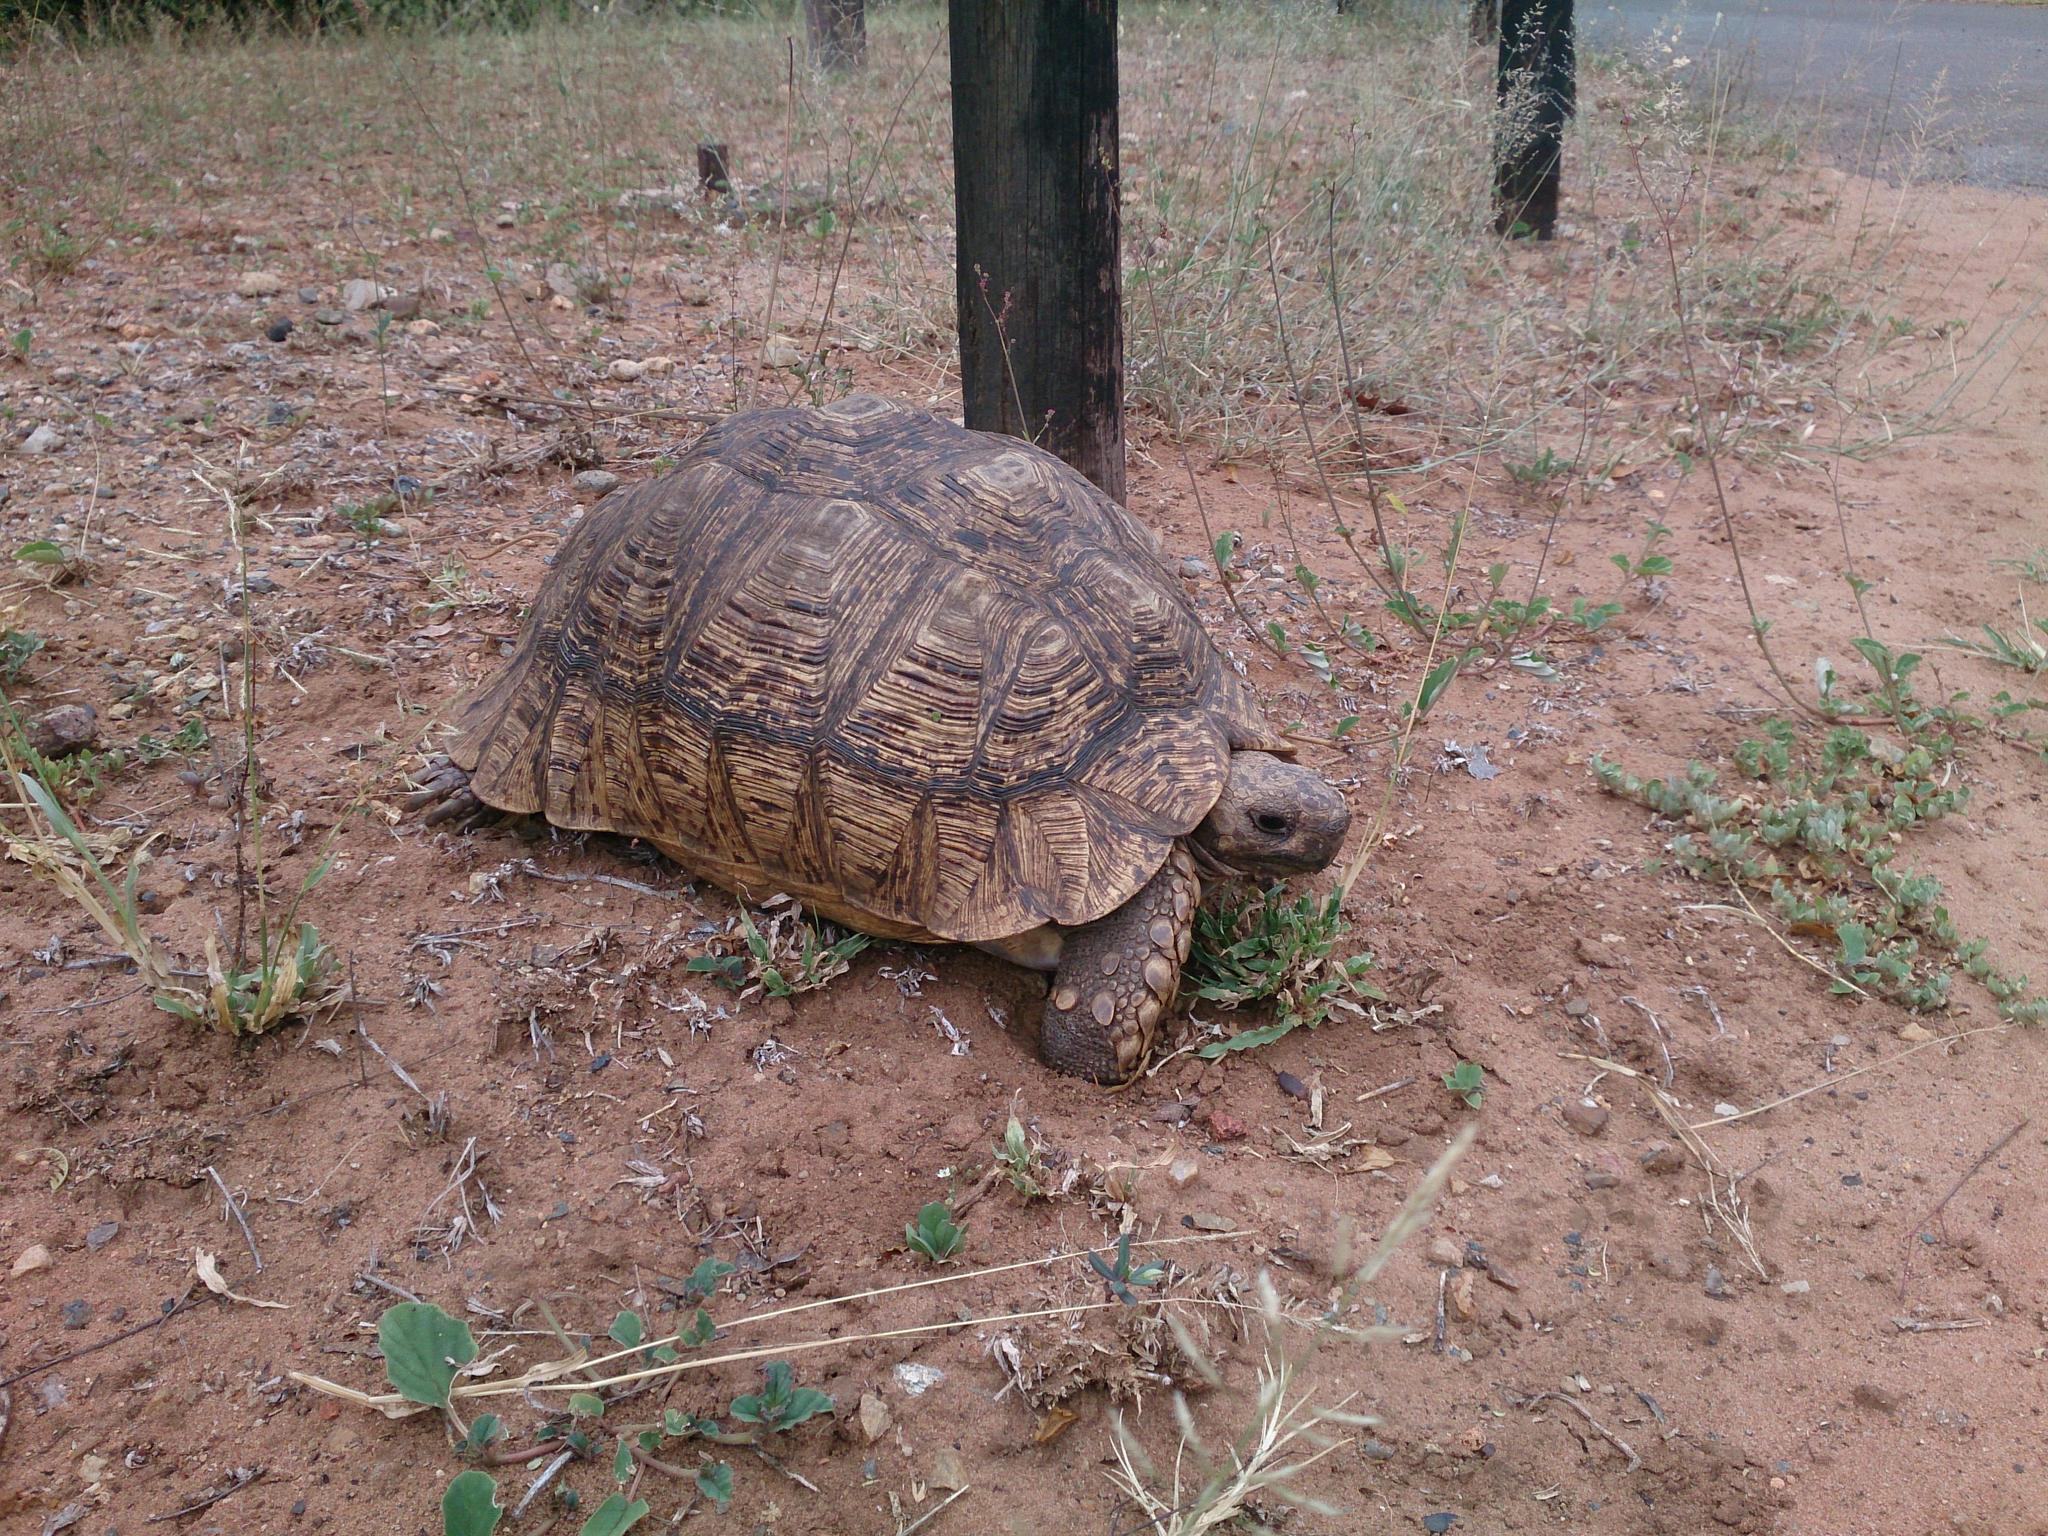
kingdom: Animalia
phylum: Chordata
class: Testudines
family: Testudinidae
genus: Stigmochelys
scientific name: Stigmochelys pardalis
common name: Leopard tortoise
